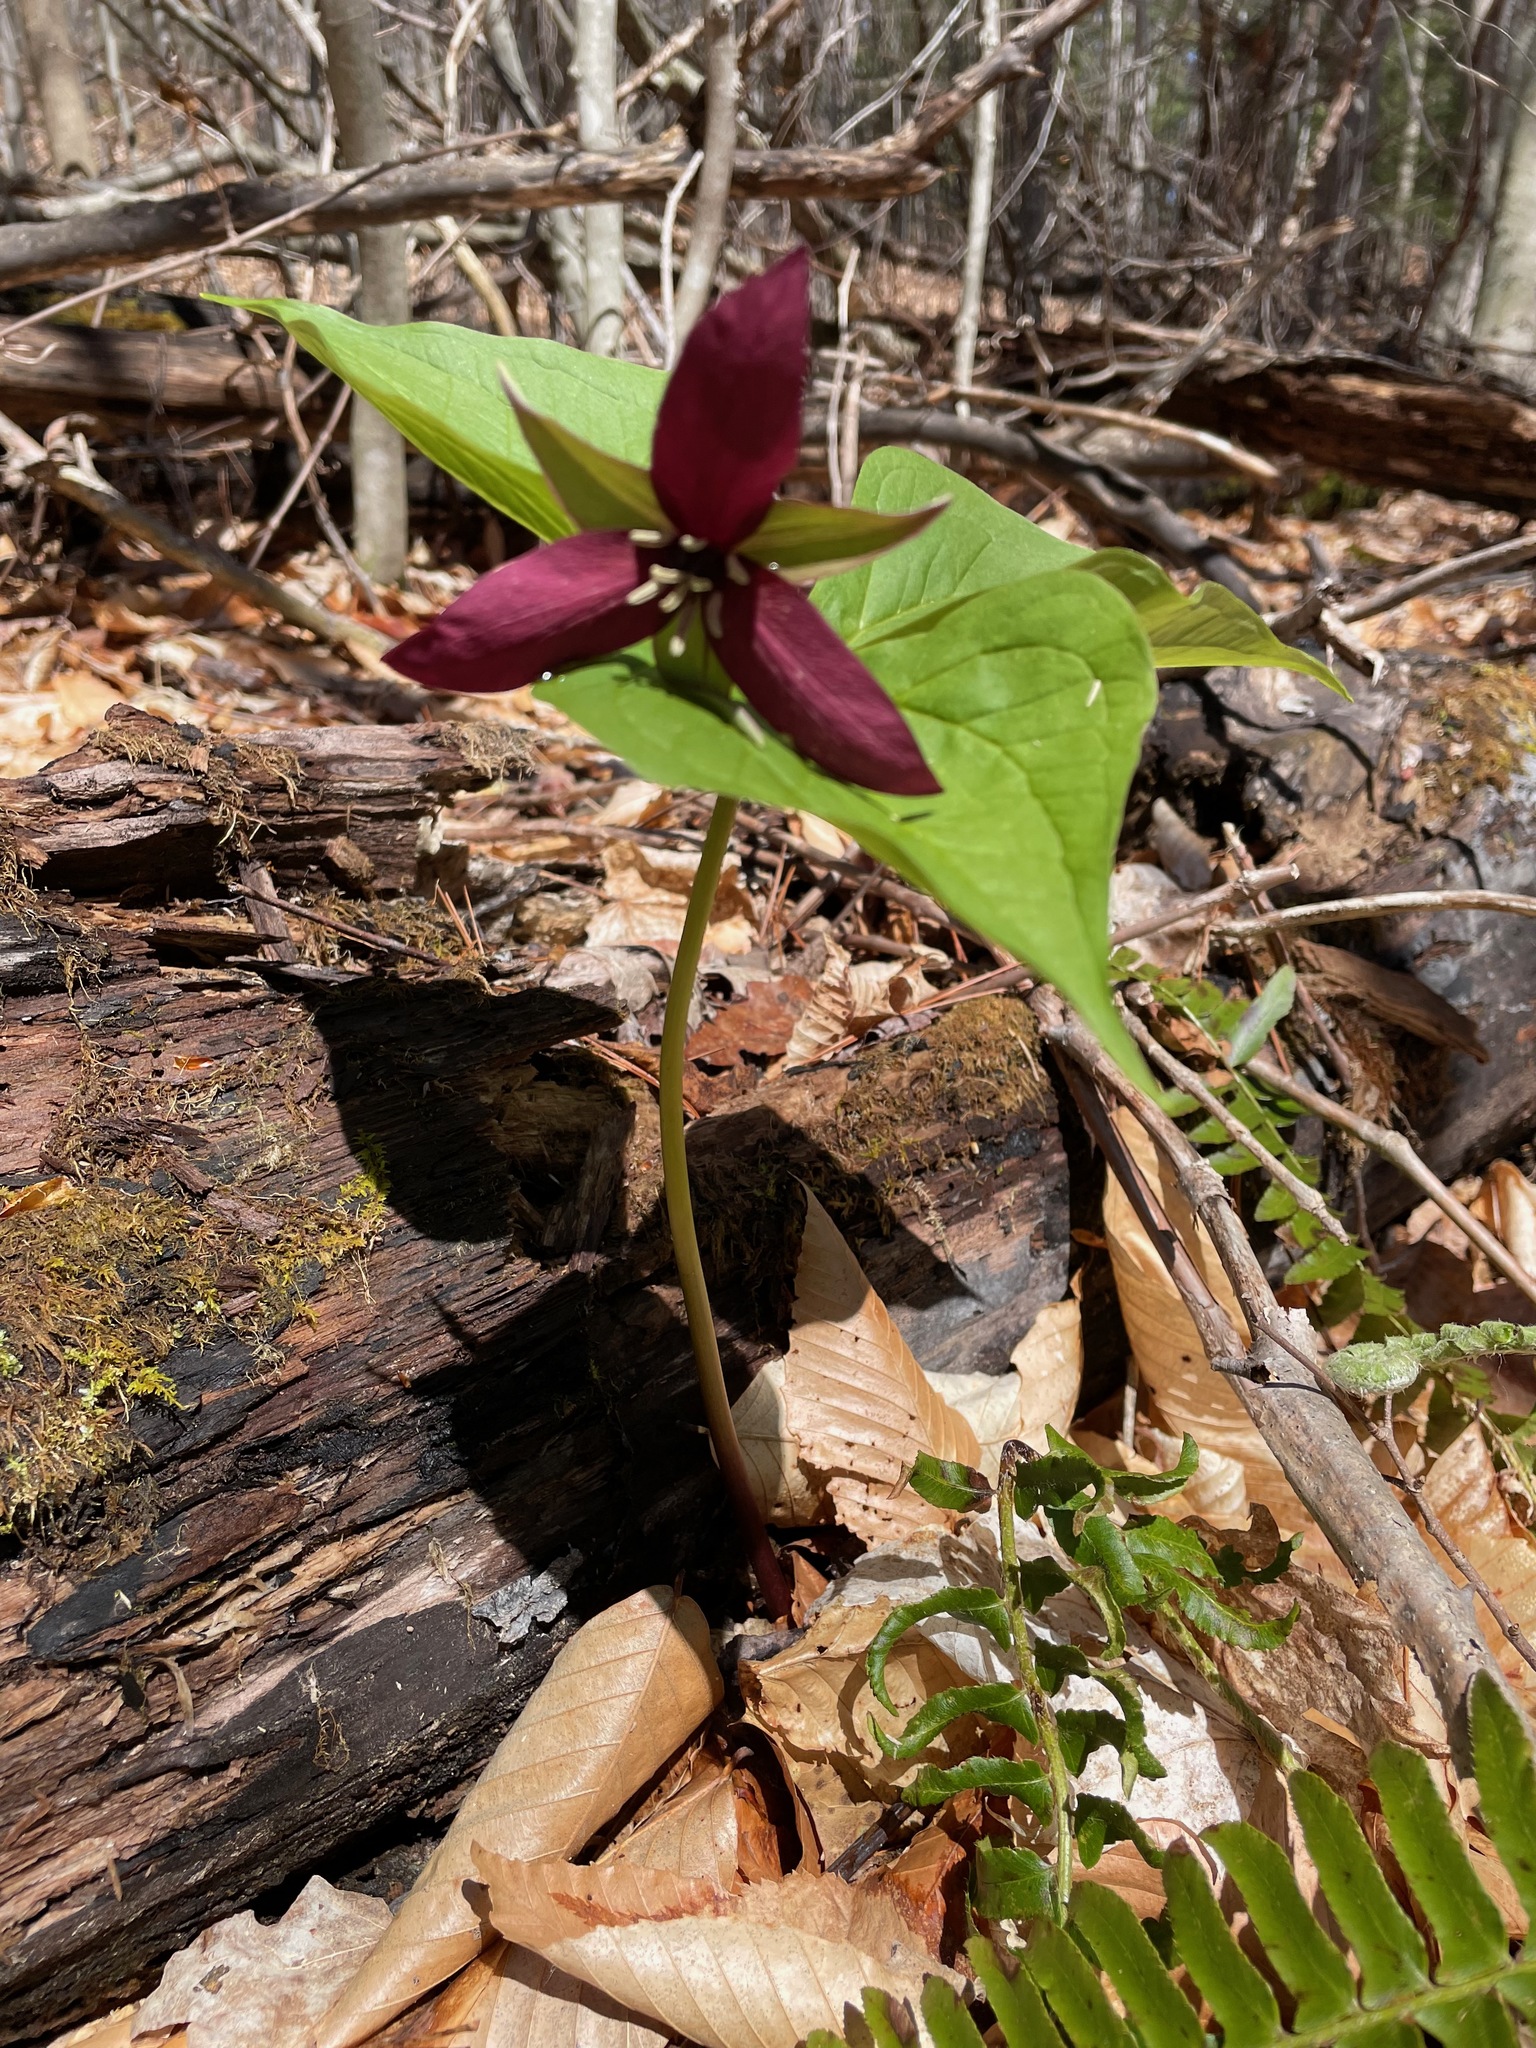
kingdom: Plantae
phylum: Tracheophyta
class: Liliopsida
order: Liliales
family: Melanthiaceae
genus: Trillium
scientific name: Trillium erectum
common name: Purple trillium
